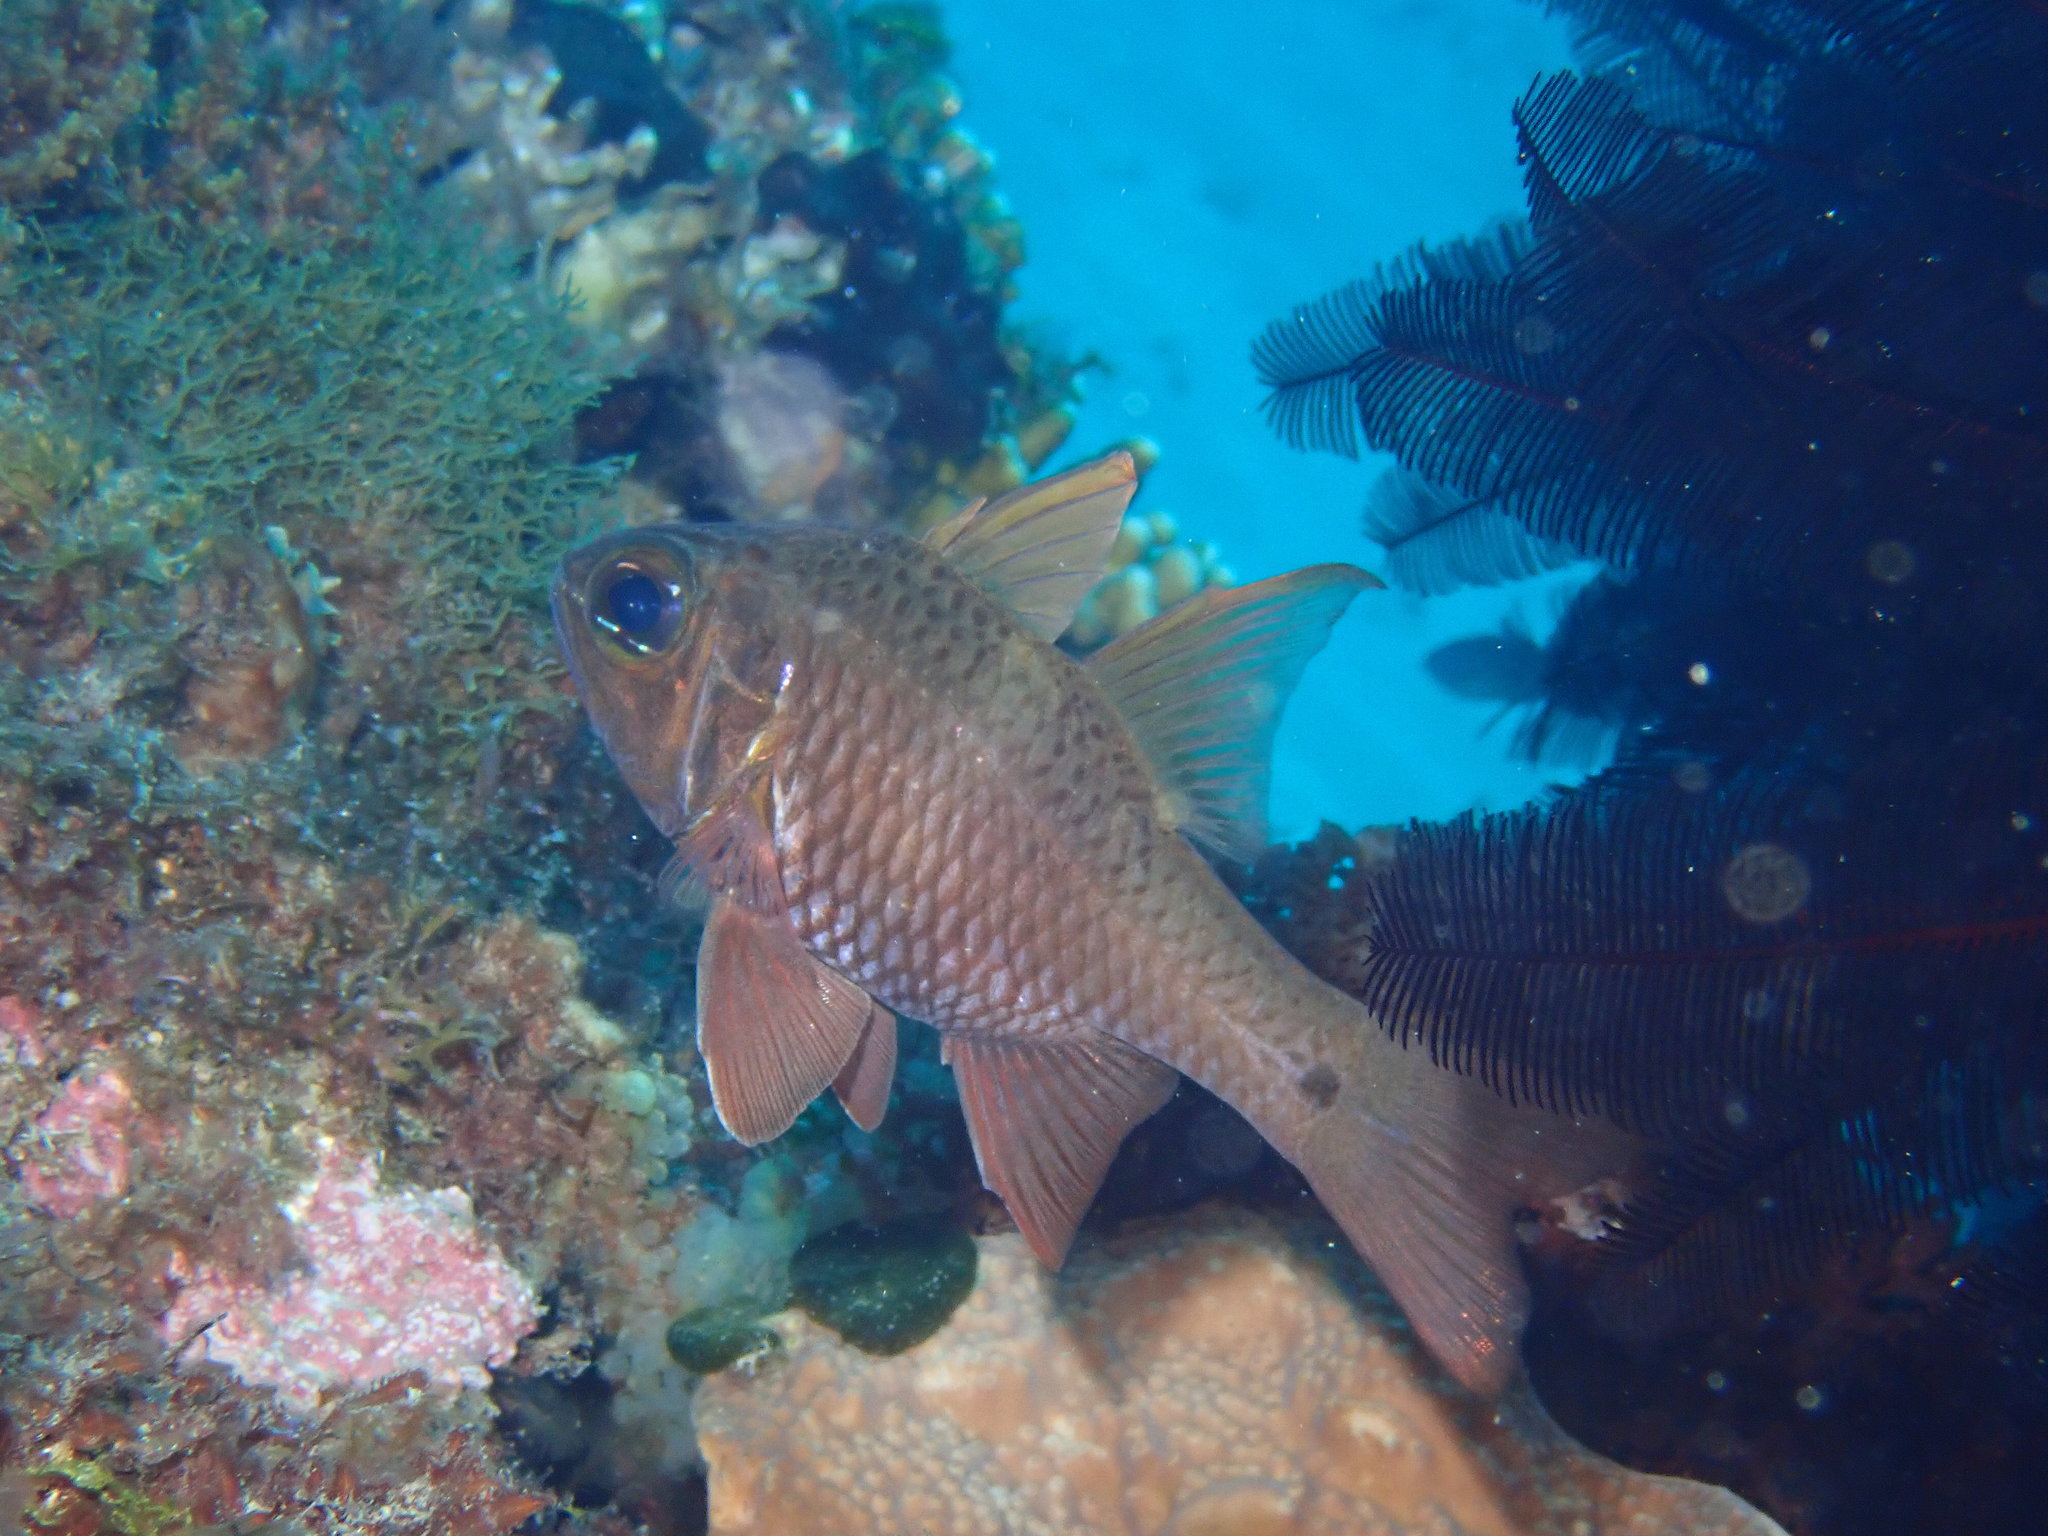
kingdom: Animalia
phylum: Chordata
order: Perciformes
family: Apogonidae
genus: Ostorhinchus
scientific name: Ostorhinchus norfolcensis
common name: Norfolk cardinalfish
